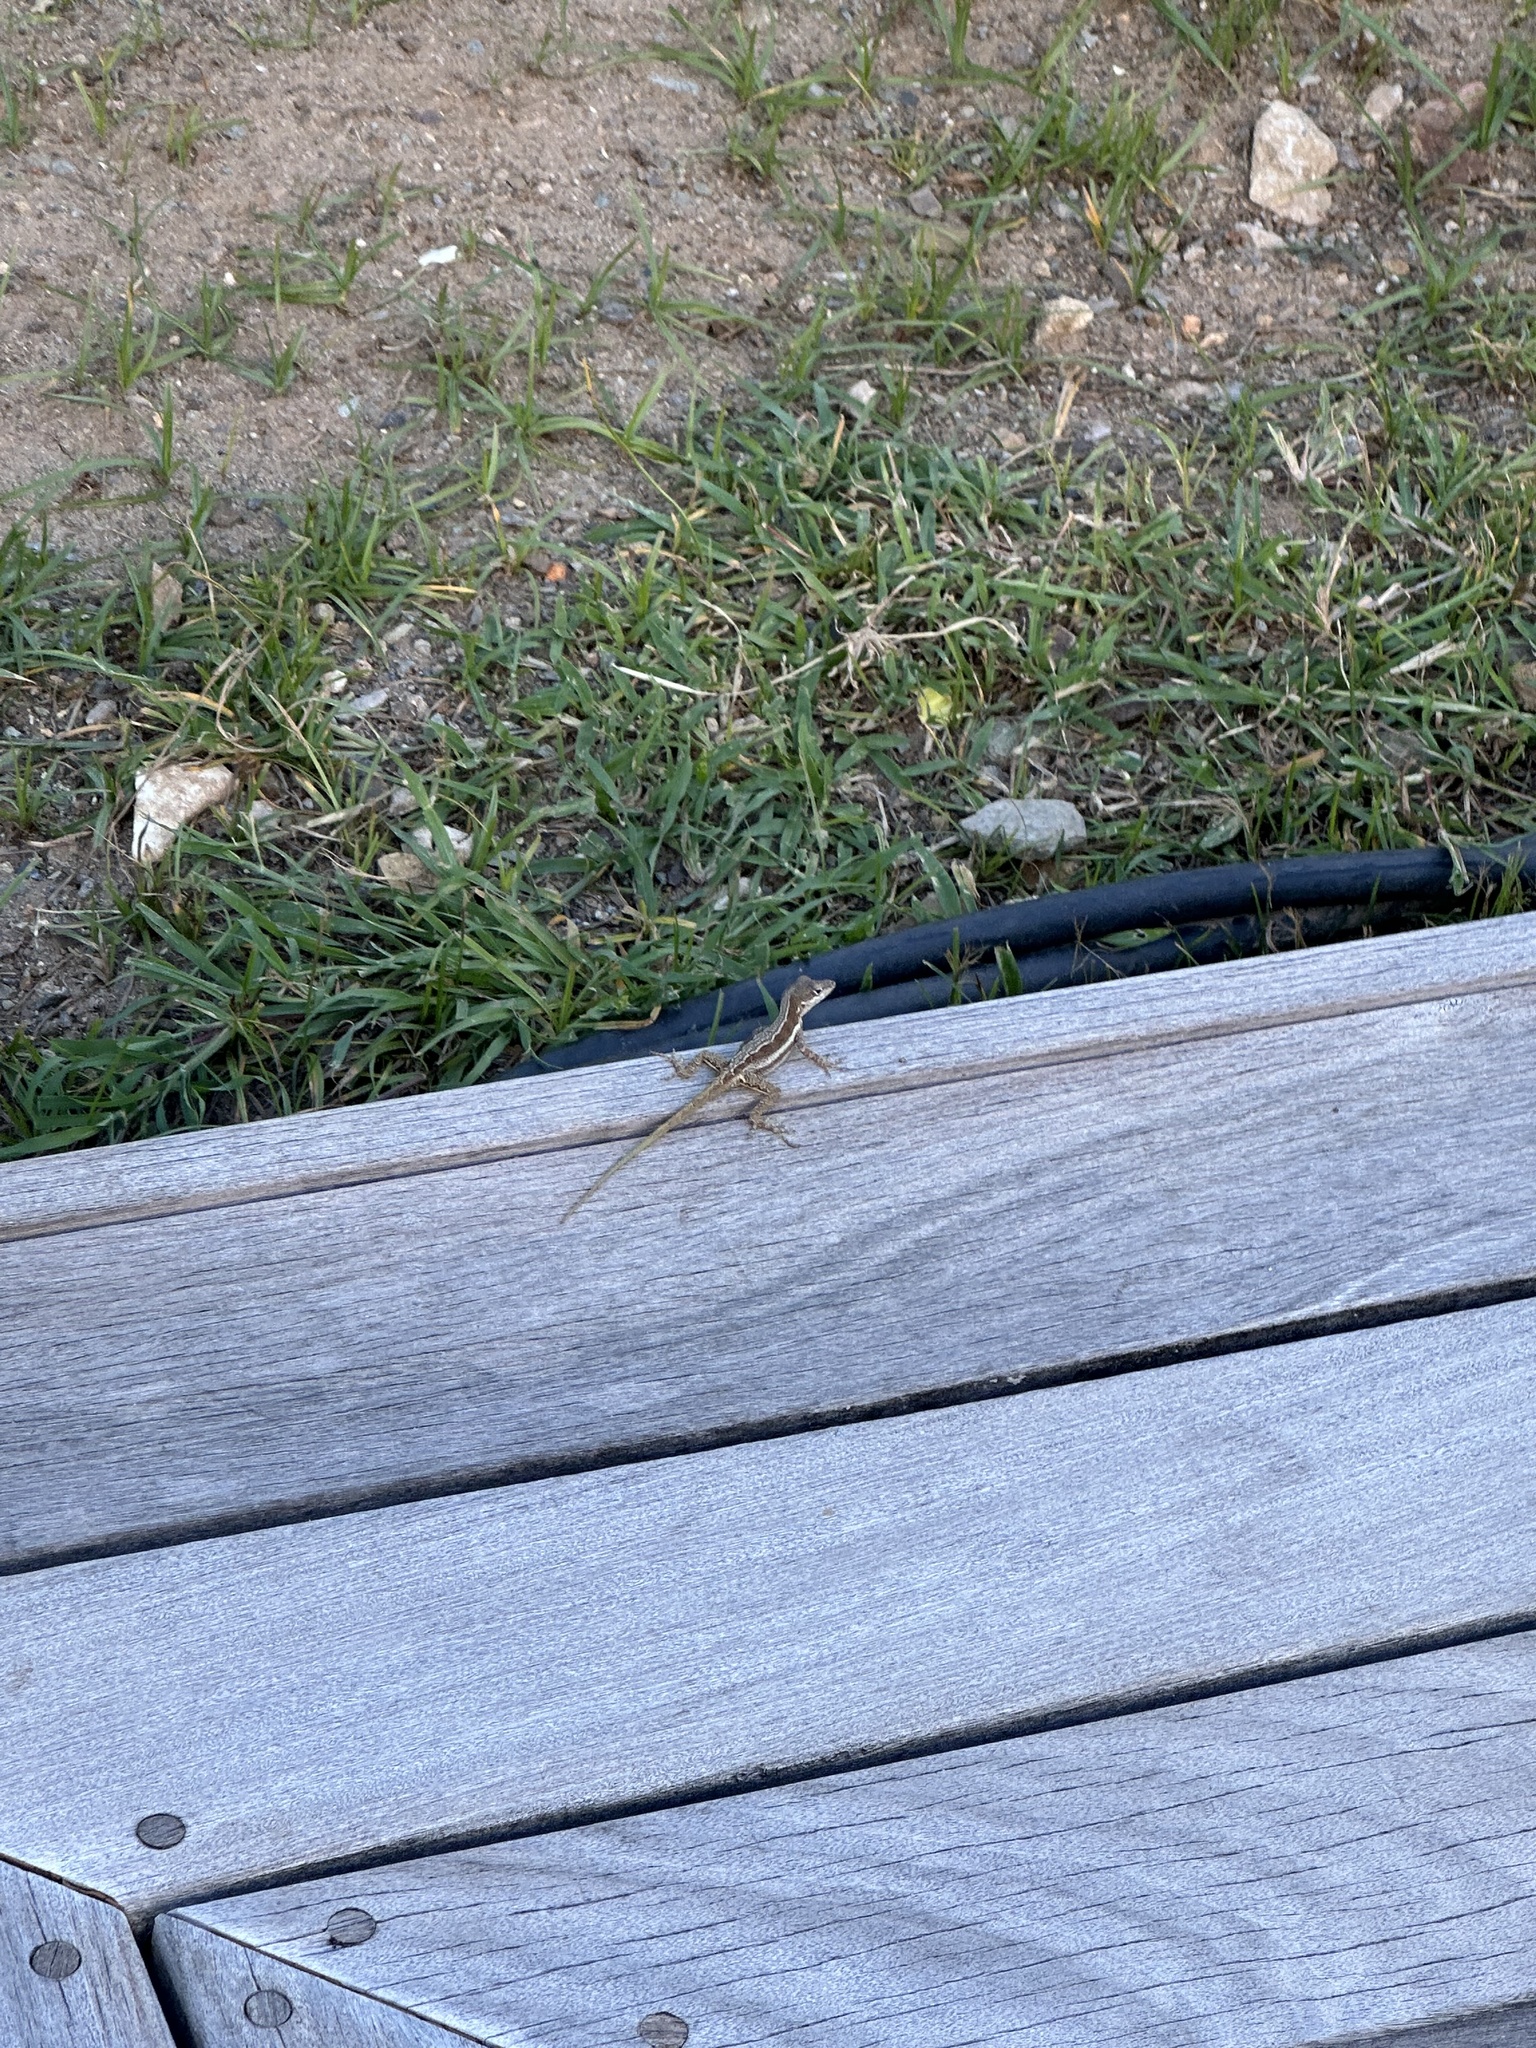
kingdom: Animalia
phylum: Chordata
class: Squamata
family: Dactyloidae
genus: Anolis
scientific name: Anolis gingivinus
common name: Anguilla anole
